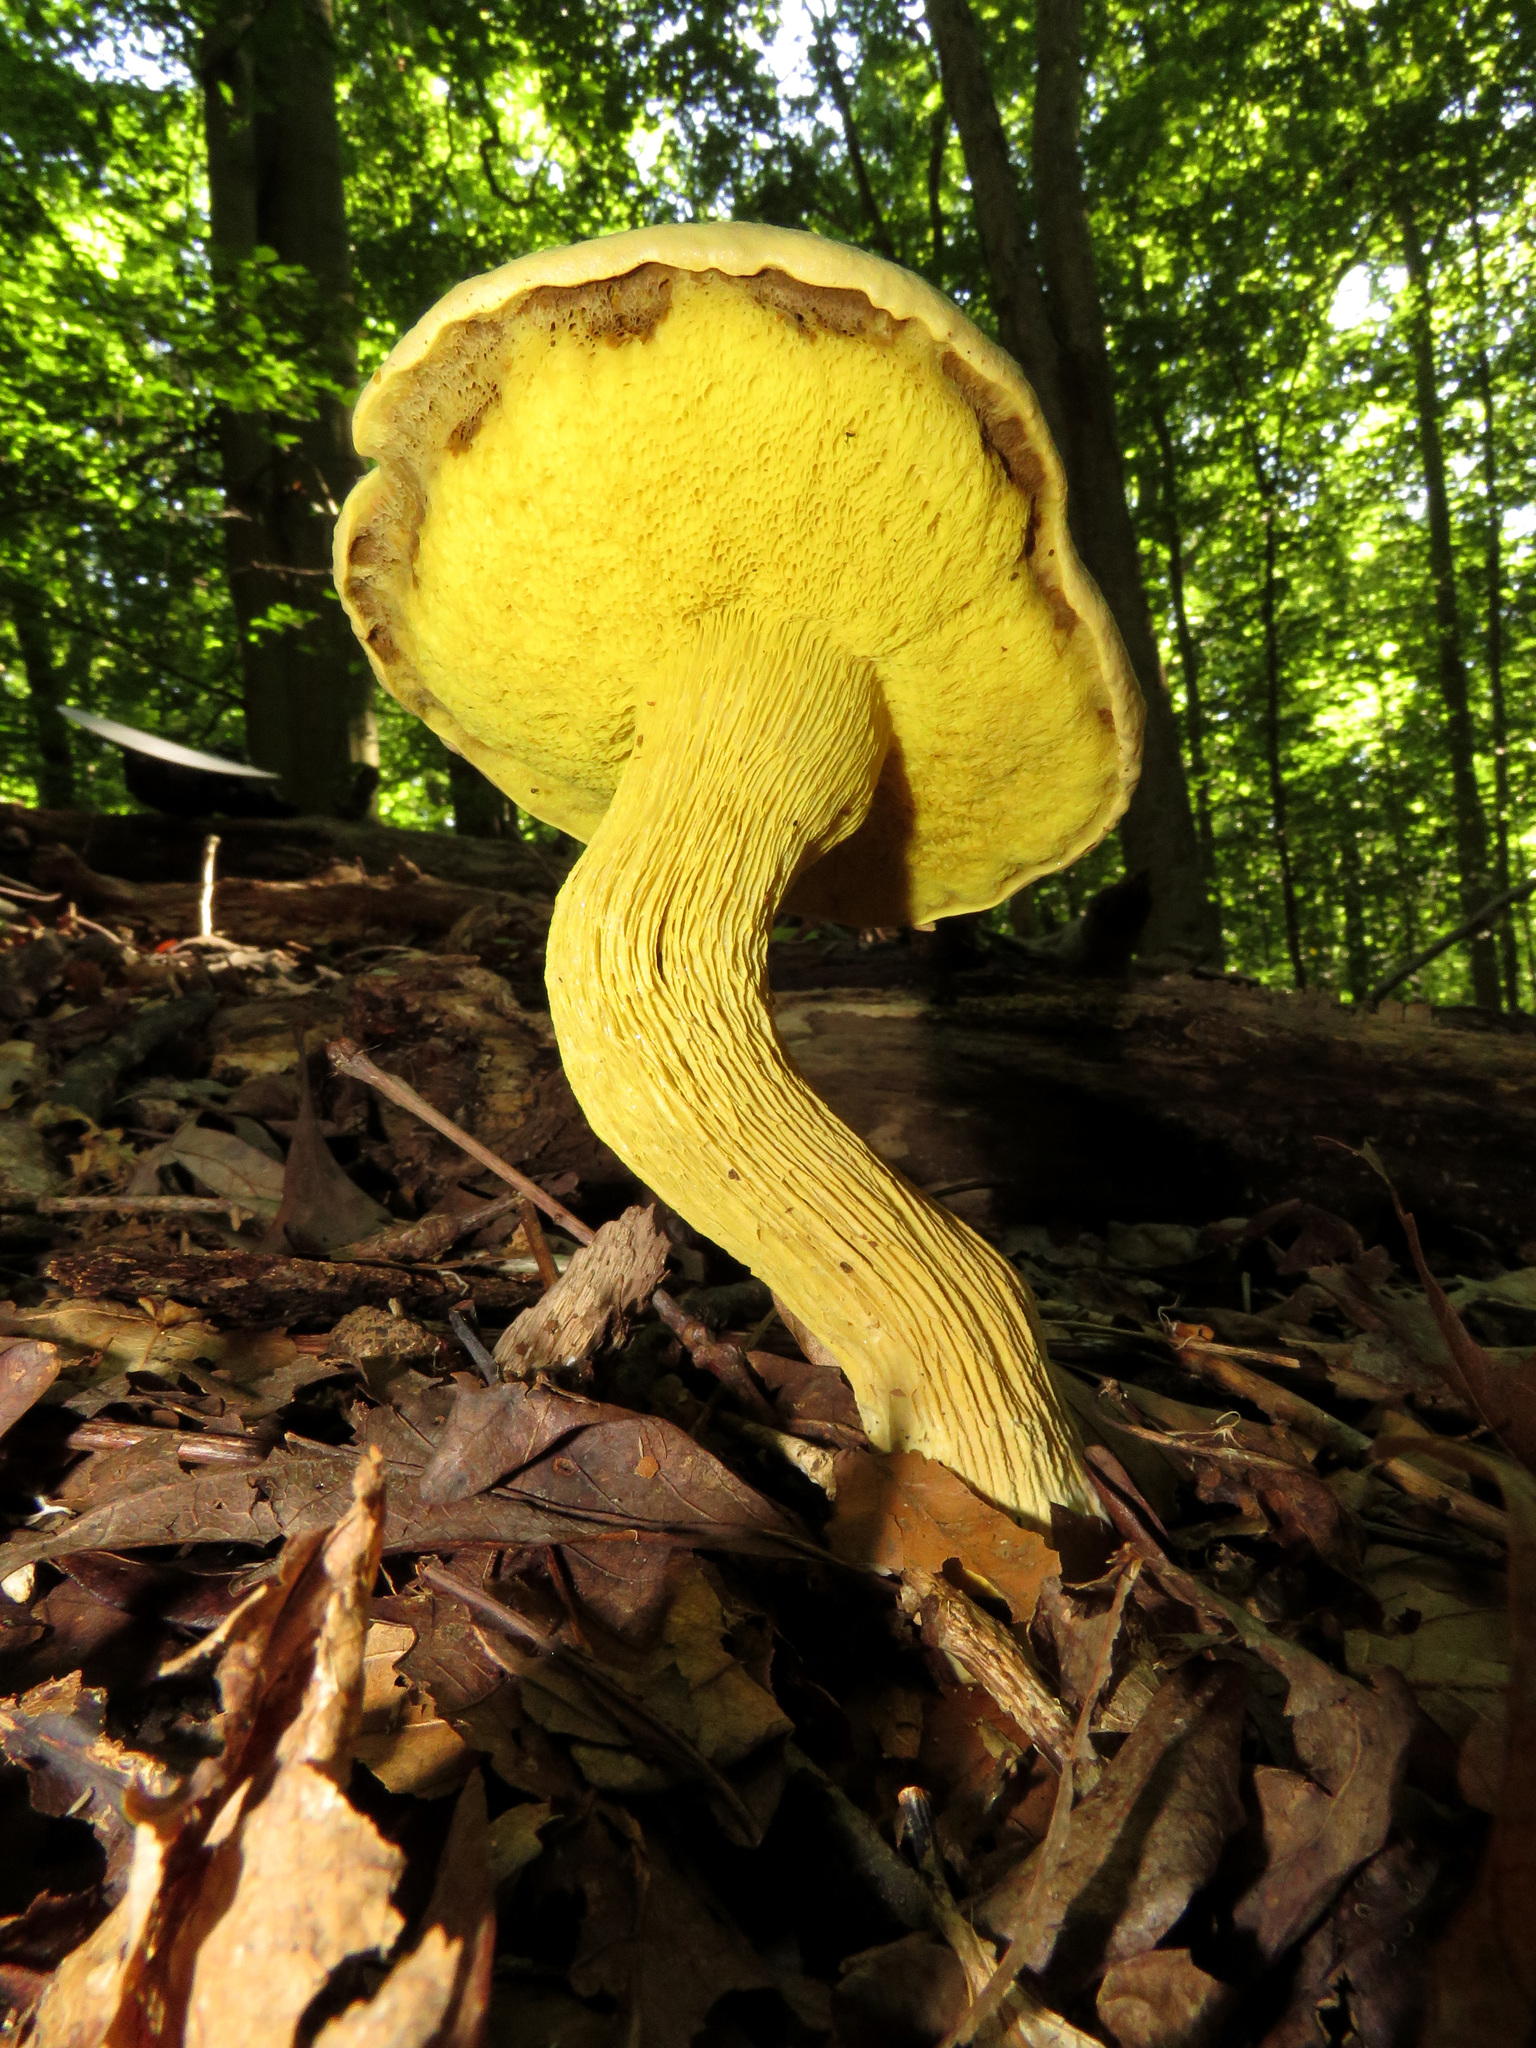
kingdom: Fungi
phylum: Basidiomycota
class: Agaricomycetes
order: Boletales
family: Boletaceae
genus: Retiboletus
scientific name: Retiboletus ornatipes
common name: Ornate-stalked bolete
